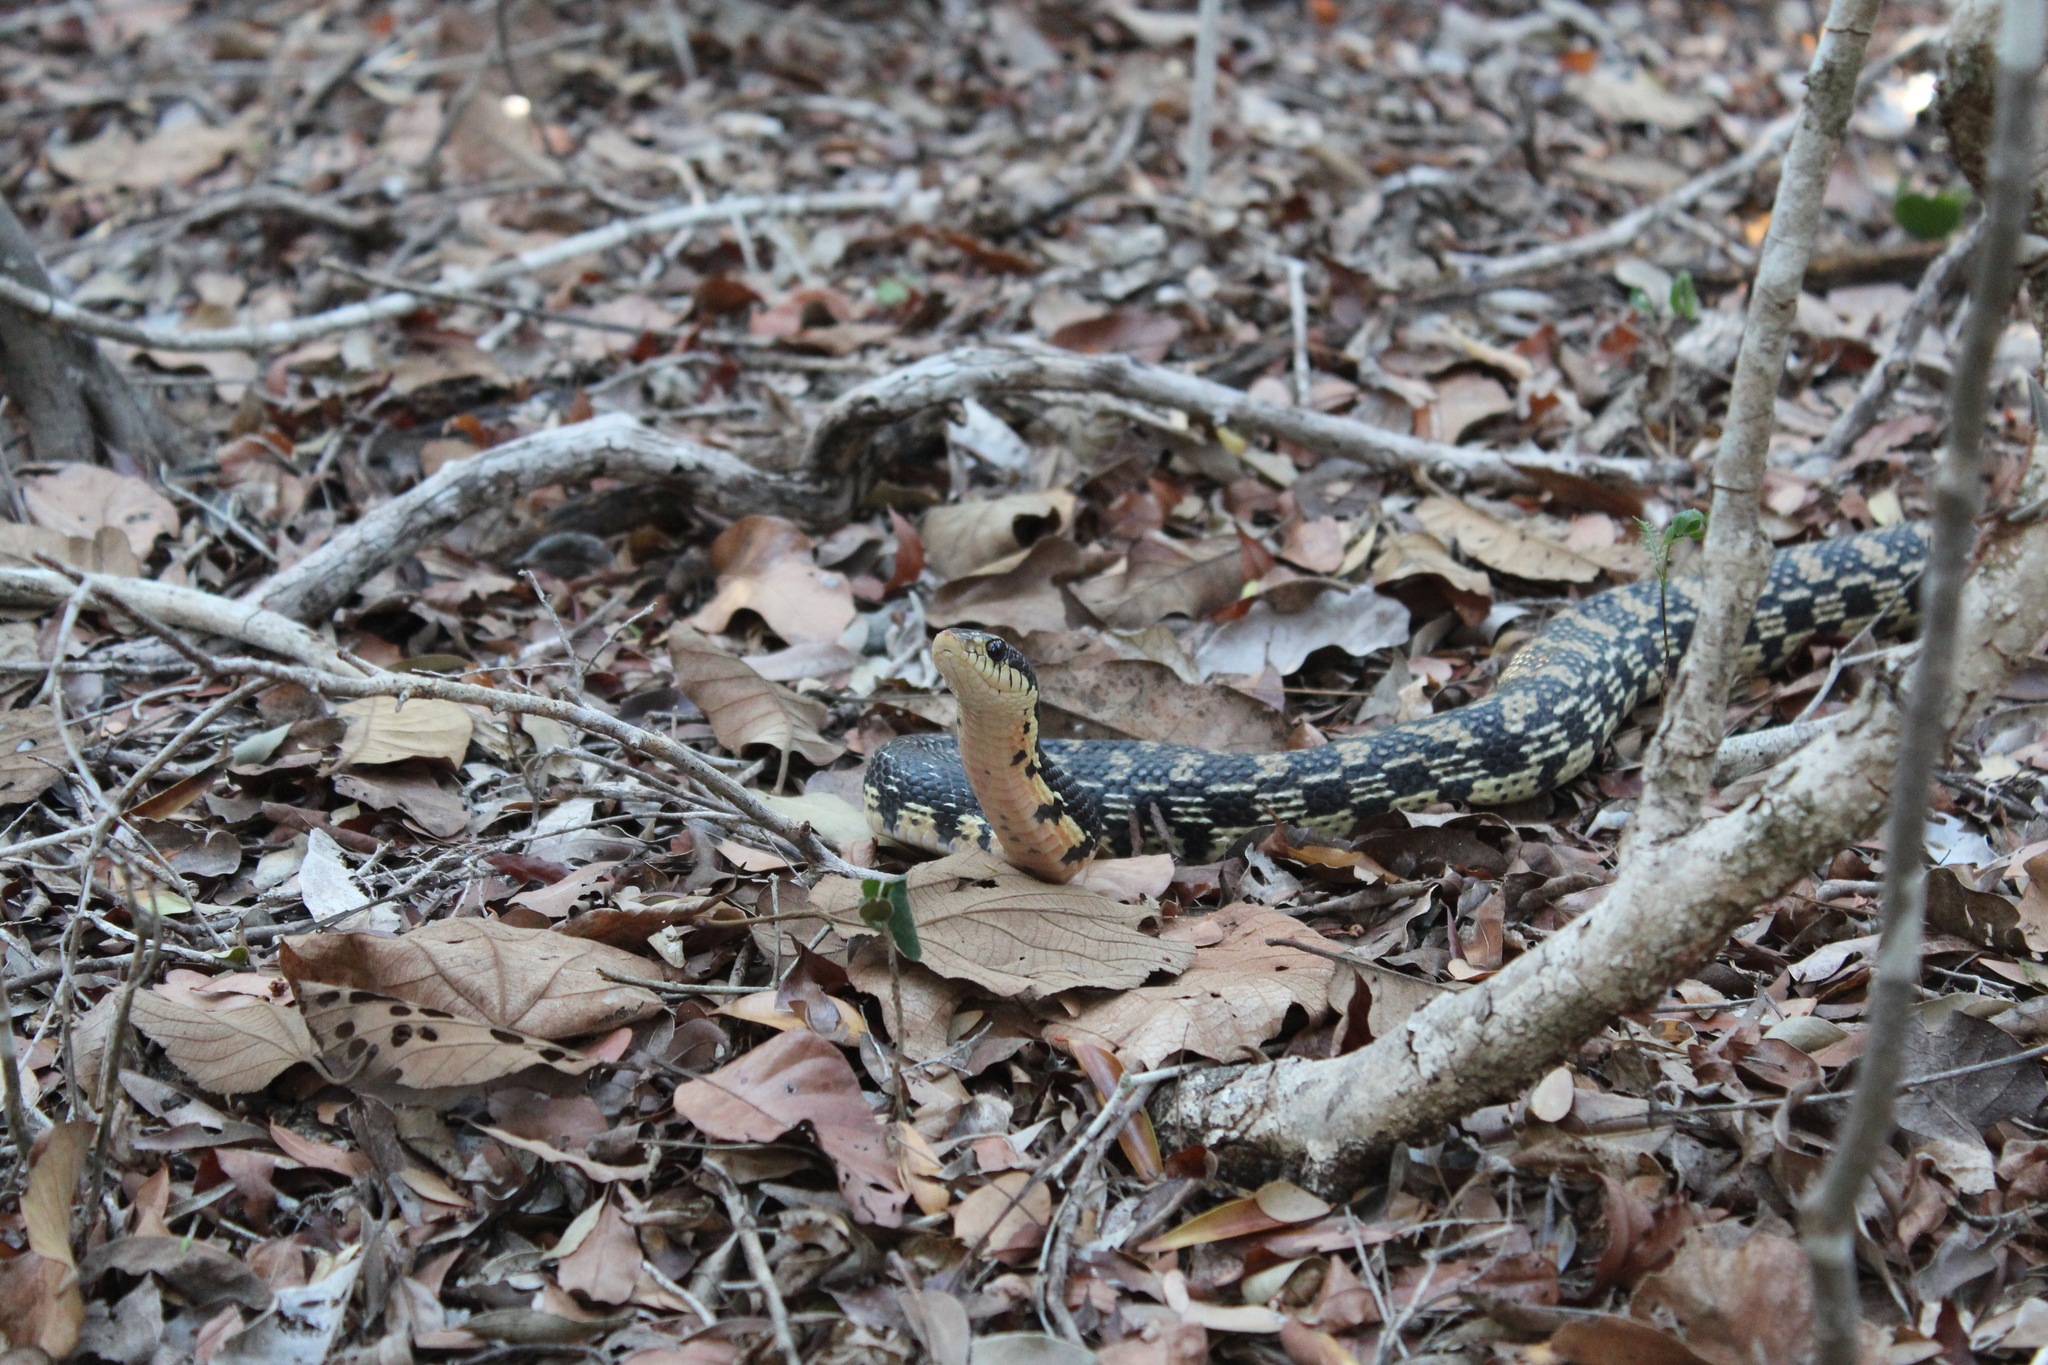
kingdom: Animalia
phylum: Chordata
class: Squamata
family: Pseudoxyrhophiidae
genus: Leioheterodon
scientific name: Leioheterodon madagascariensis
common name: Malagasy giant hognose snake
